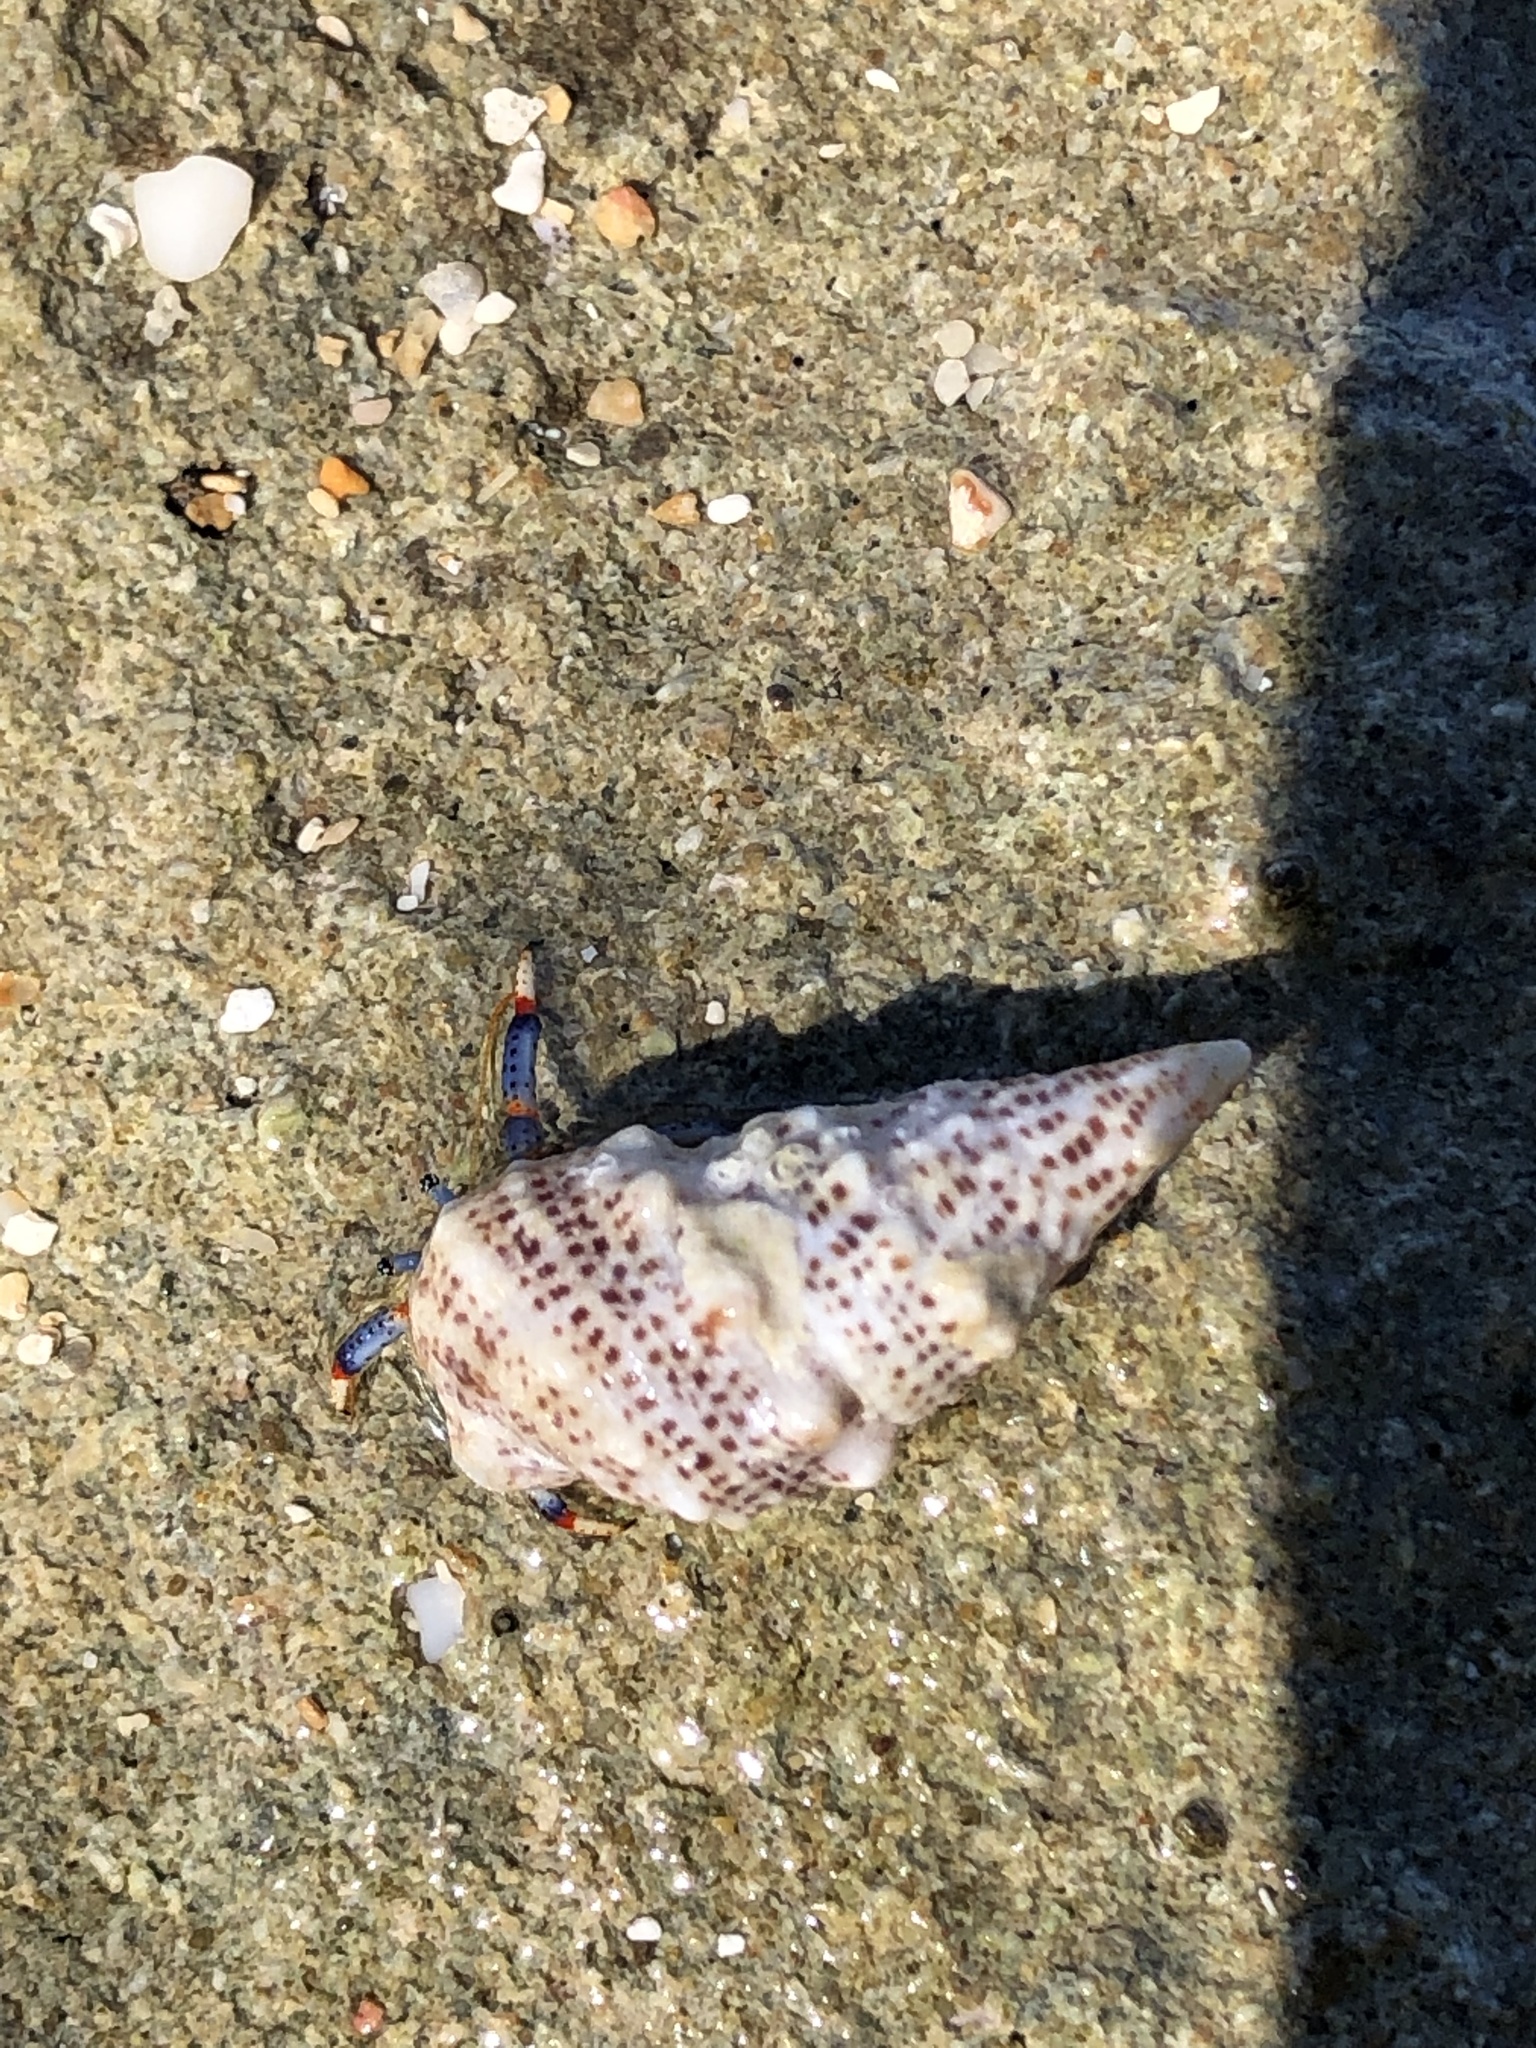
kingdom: Animalia
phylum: Mollusca
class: Gastropoda
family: Cerithiidae
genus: Cerithium
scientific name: Cerithium litteratum
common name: Stocky cerith
